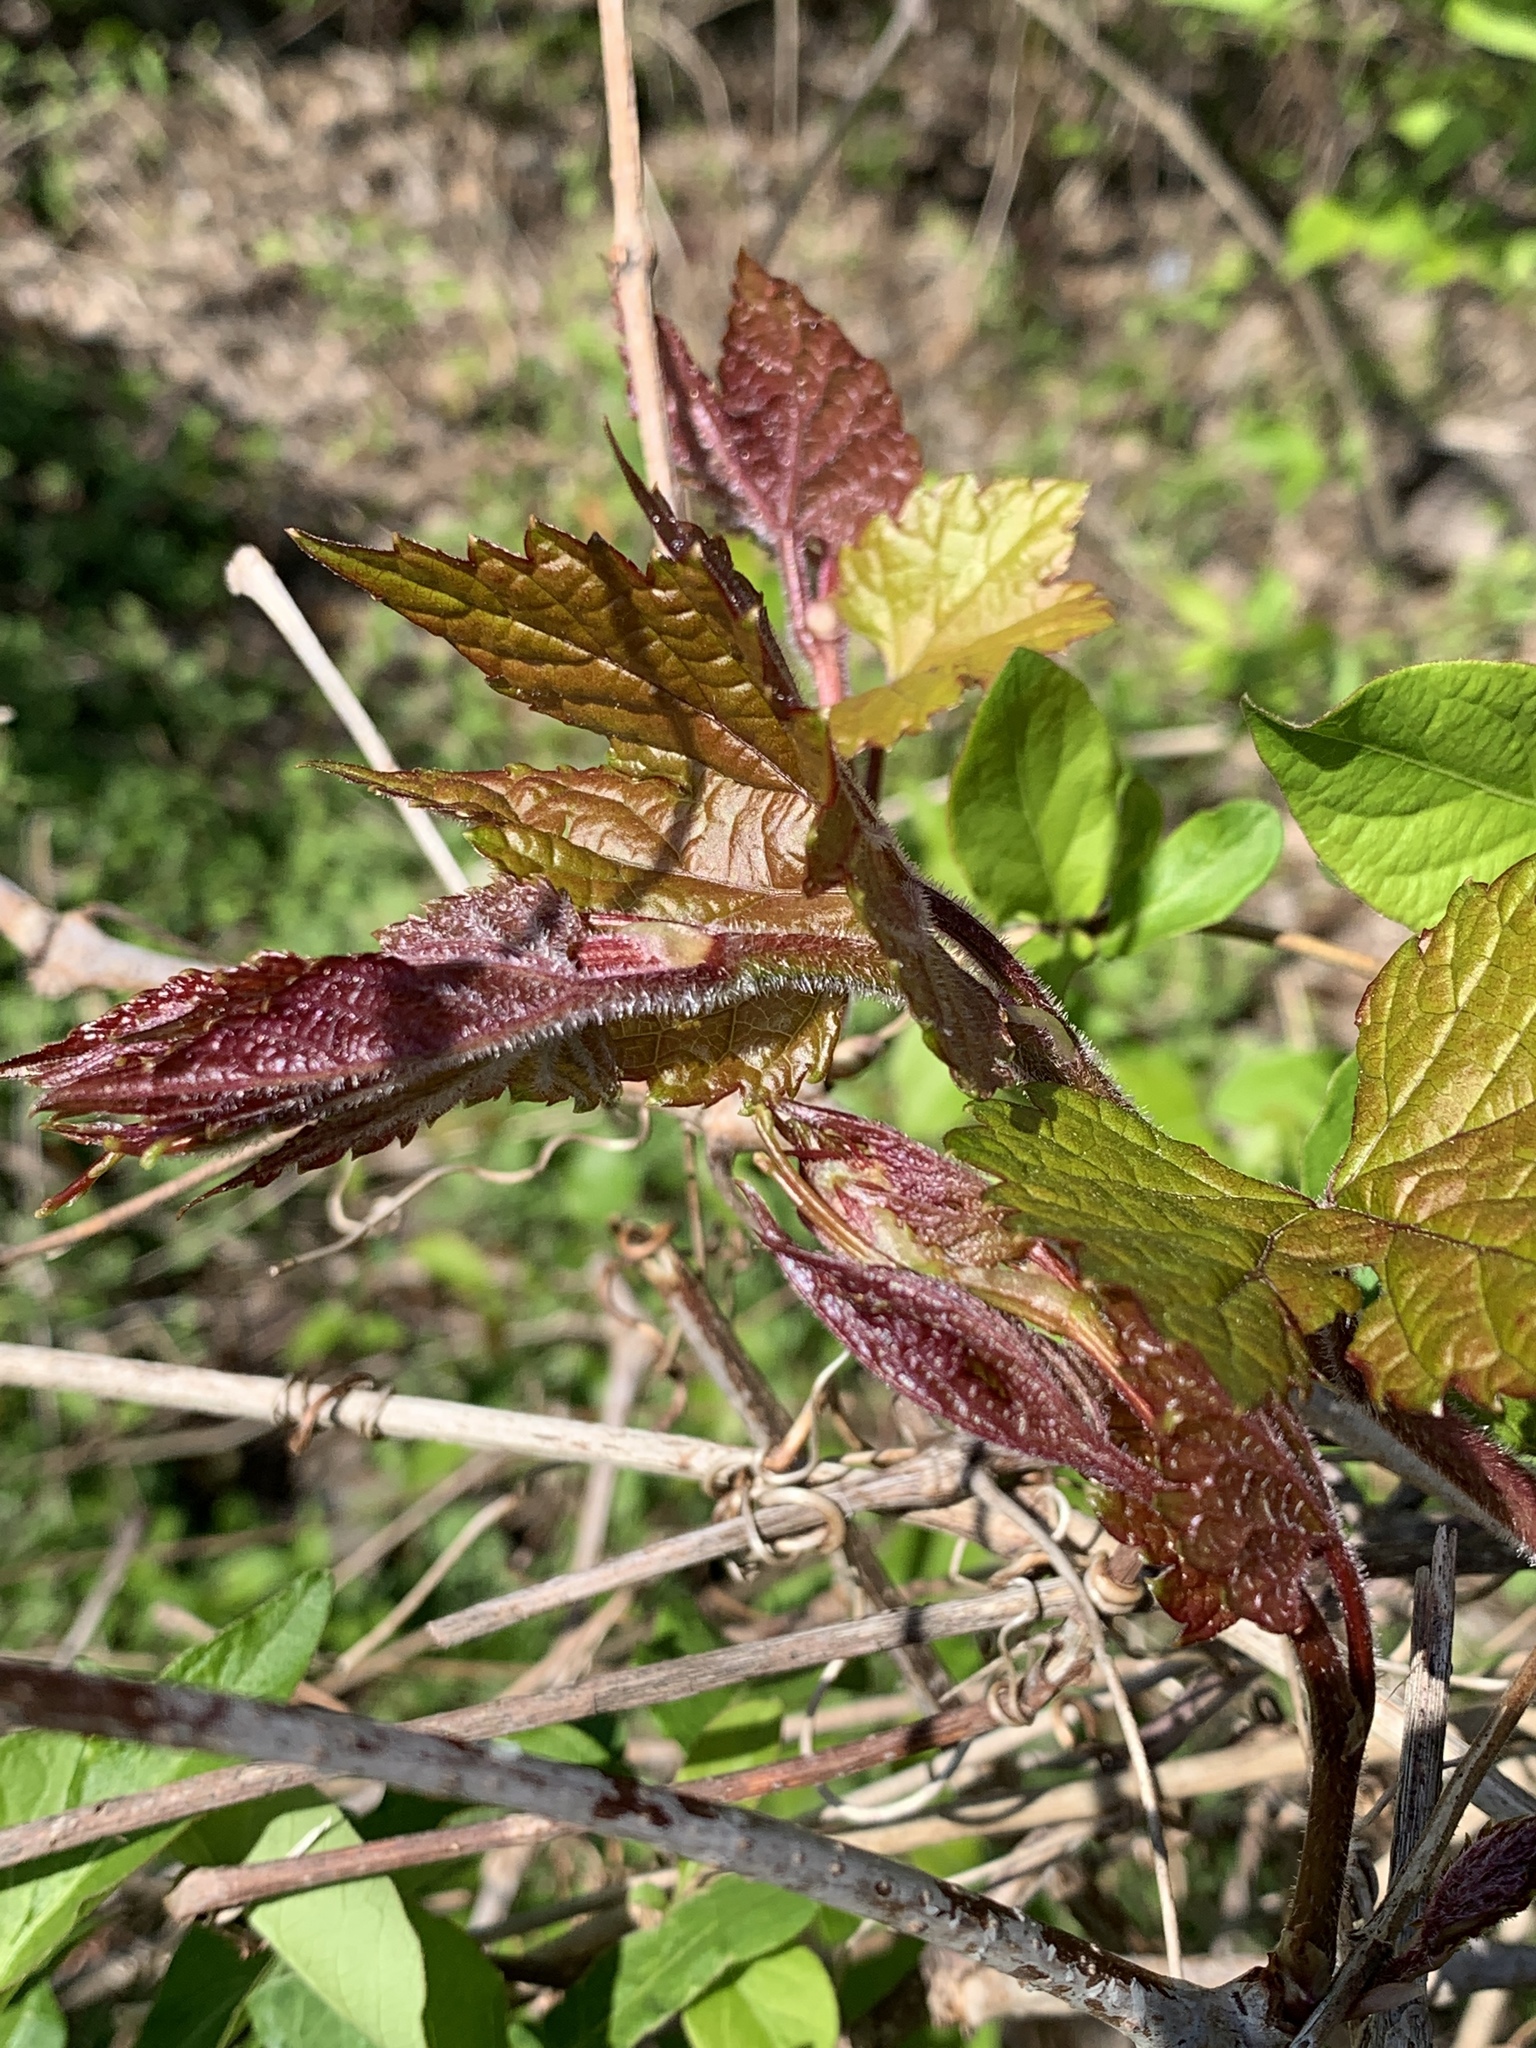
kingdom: Plantae
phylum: Tracheophyta
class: Magnoliopsida
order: Vitales
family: Vitaceae
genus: Ampelopsis
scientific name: Ampelopsis glandulosa
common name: Amur peppervine
